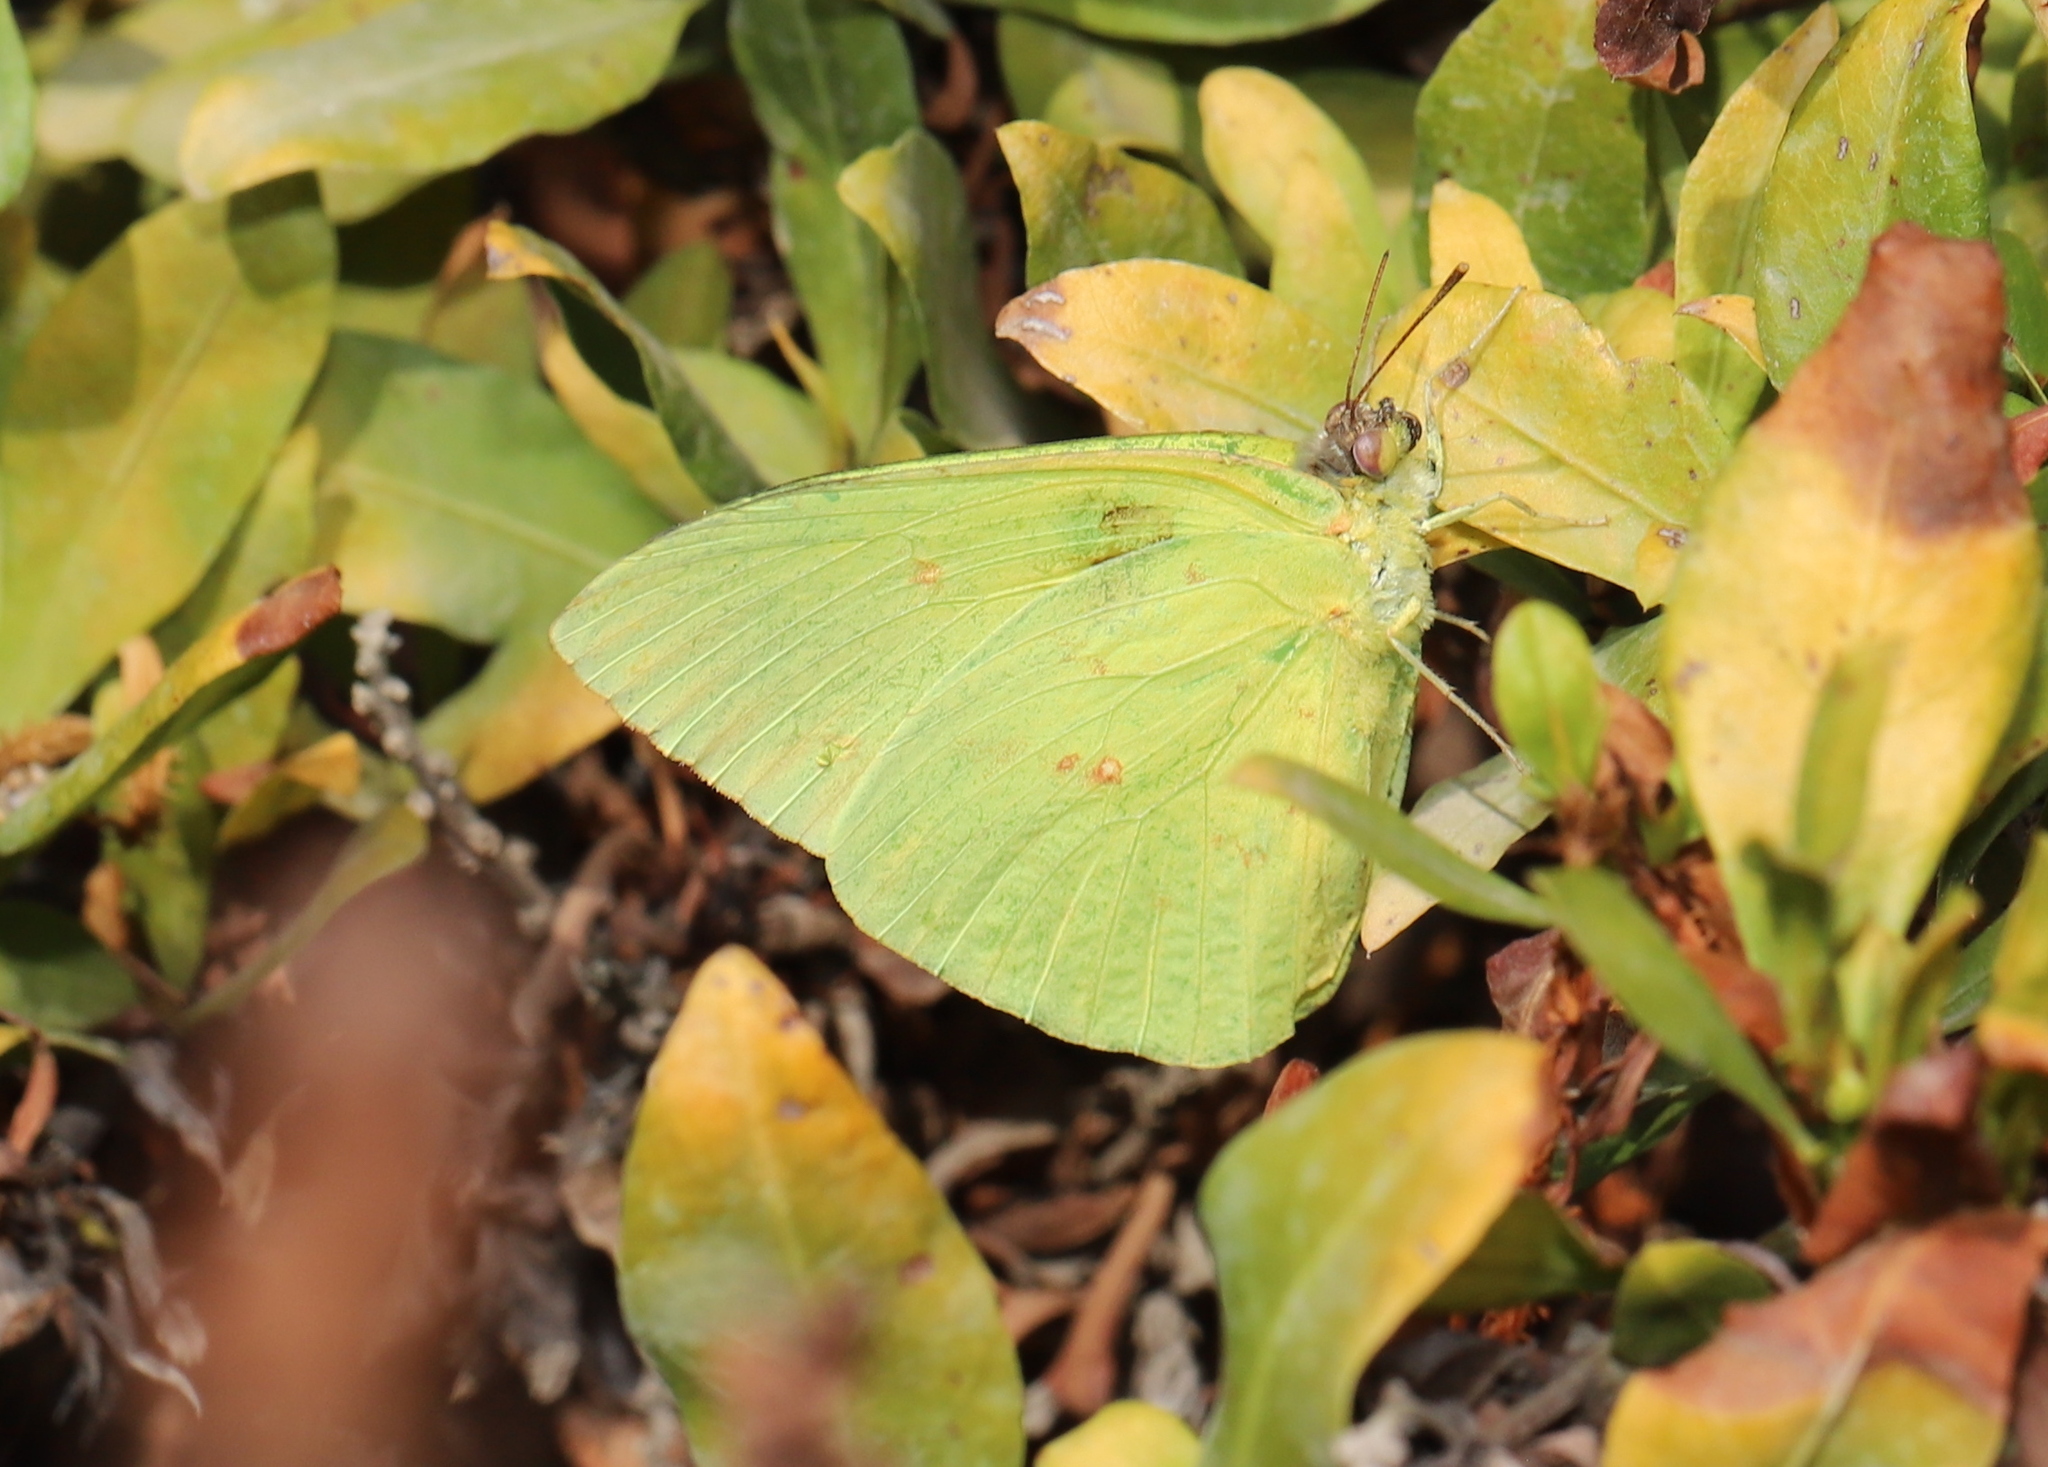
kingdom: Animalia
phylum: Arthropoda
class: Insecta
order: Lepidoptera
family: Pieridae
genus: Phoebis
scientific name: Phoebis sennae
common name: Cloudless sulphur
